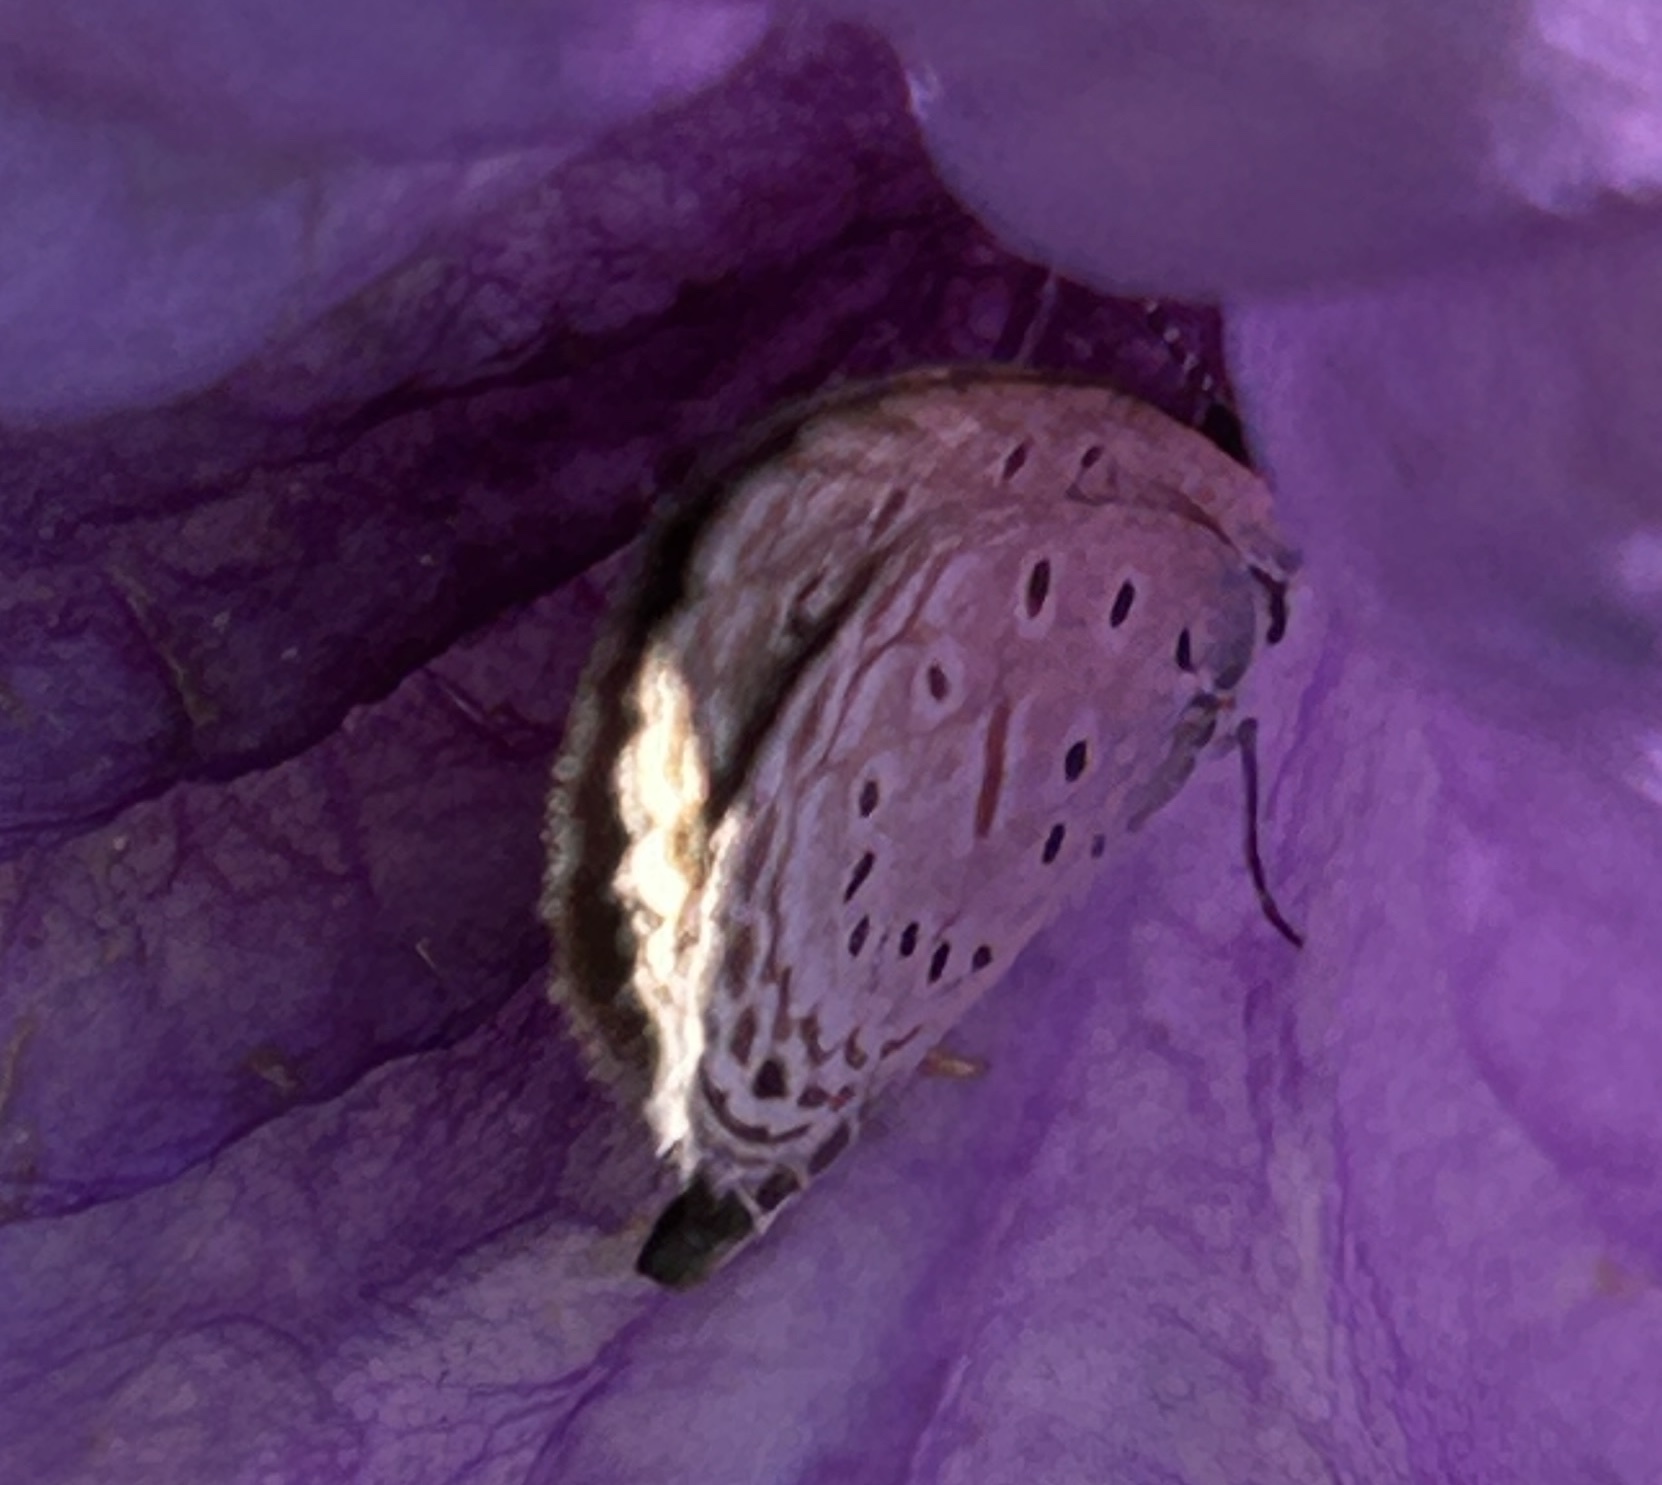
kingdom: Animalia
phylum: Arthropoda
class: Insecta
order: Lepidoptera
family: Lycaenidae
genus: Zizula
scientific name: Zizula hylax
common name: Gaika blue
